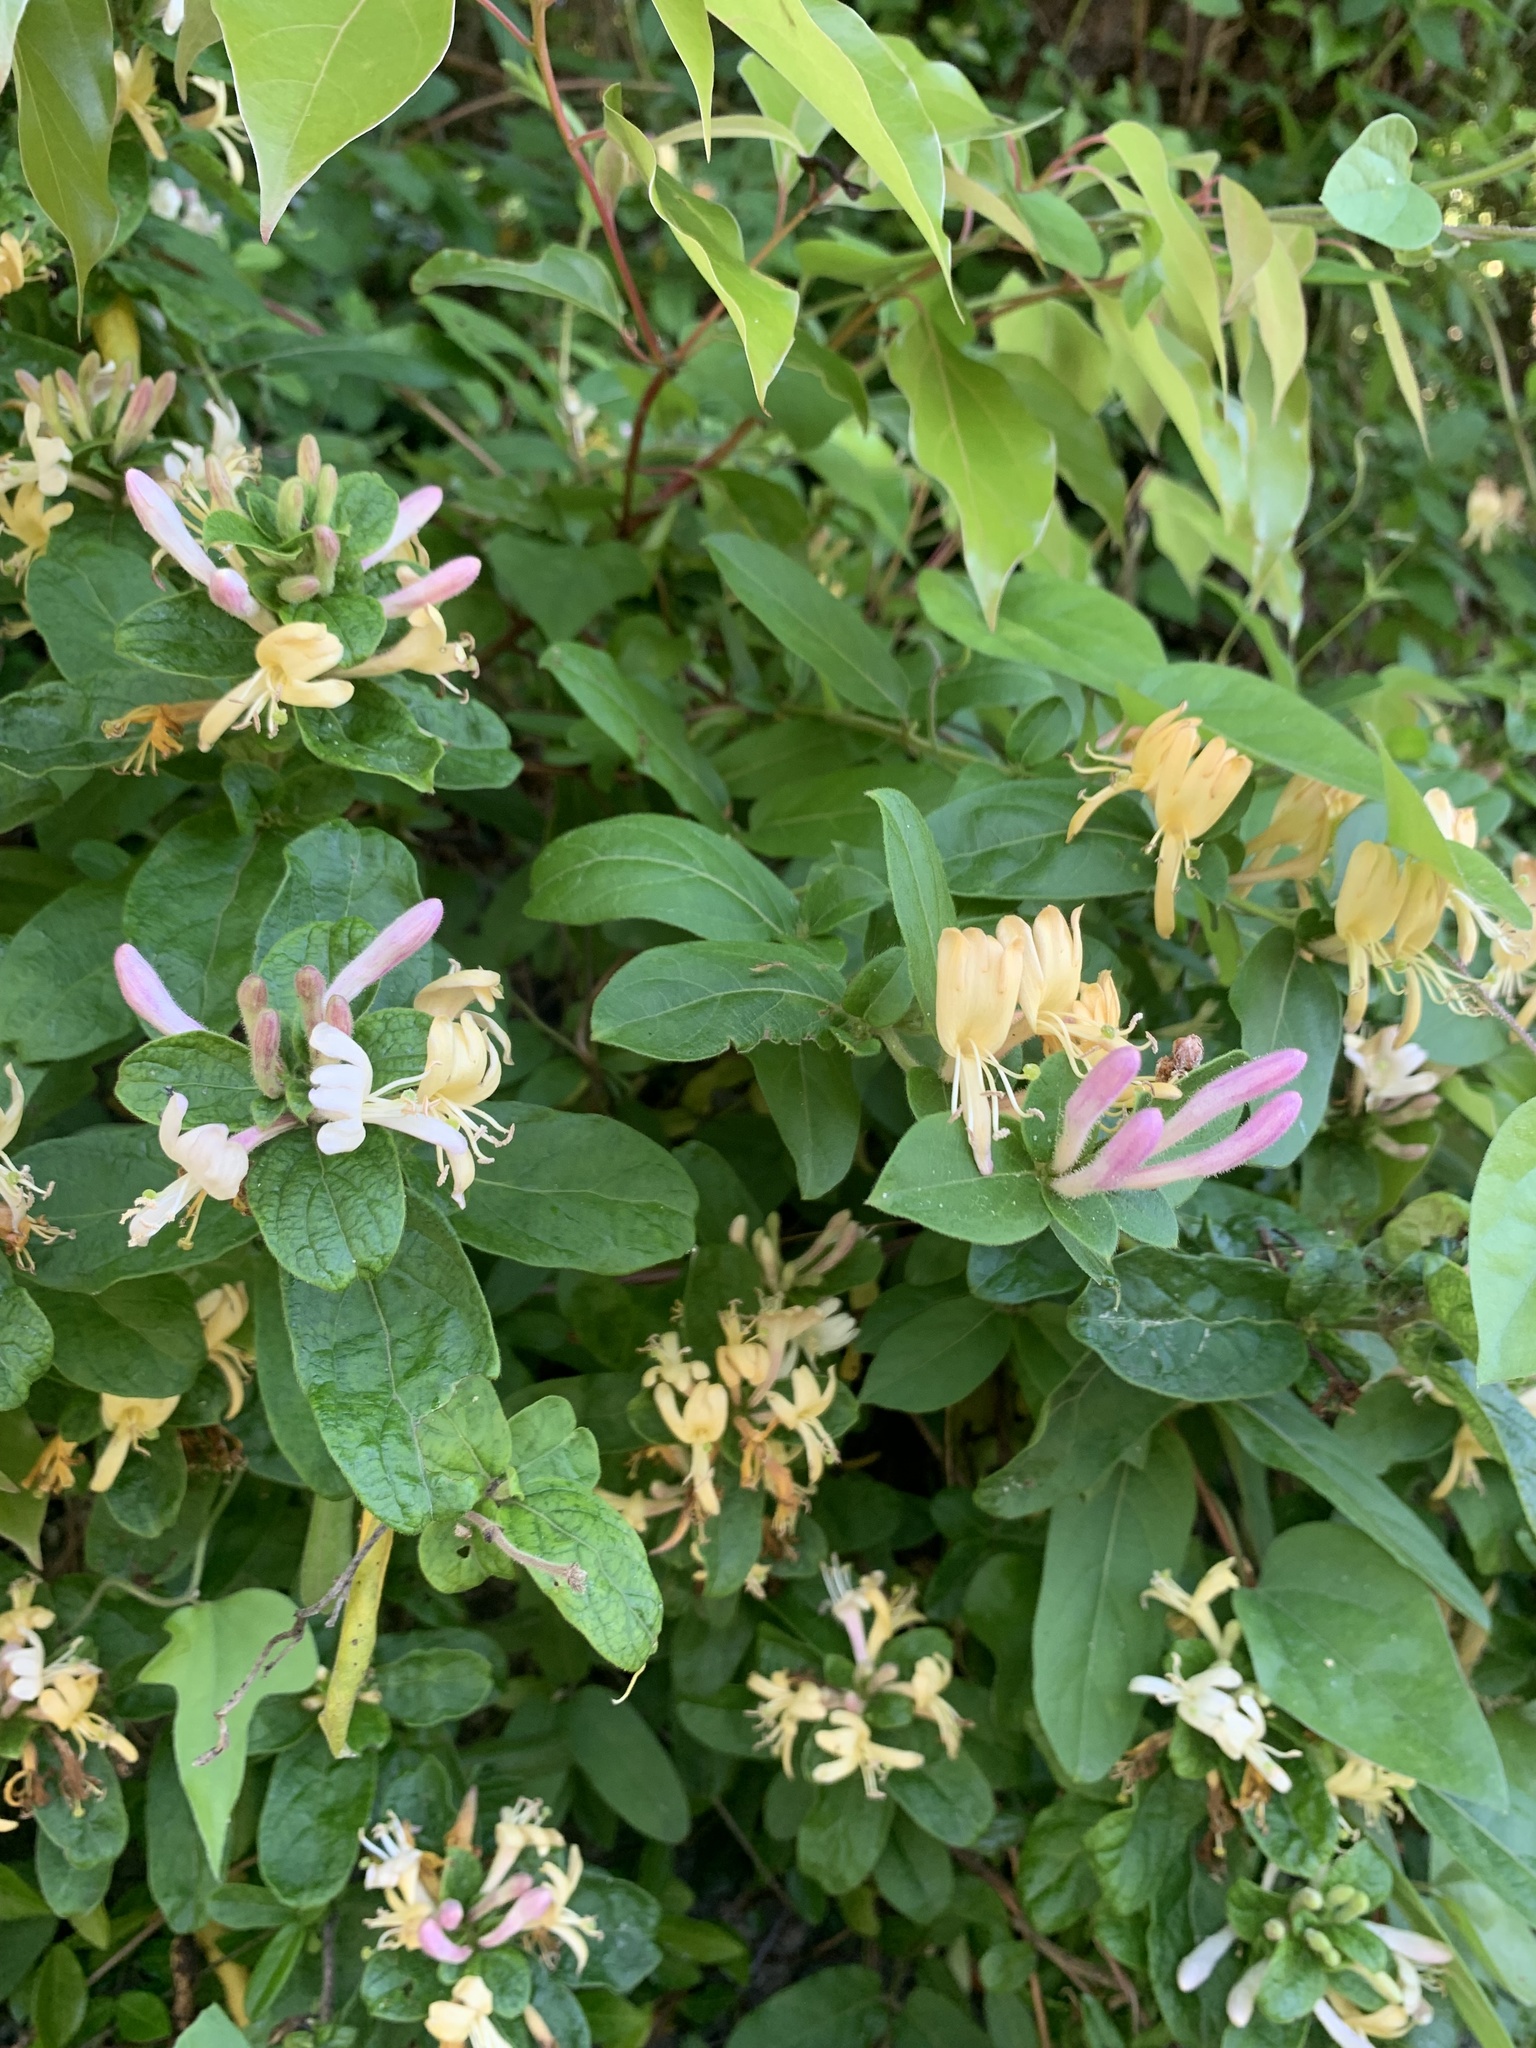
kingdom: Plantae
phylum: Tracheophyta
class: Magnoliopsida
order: Dipsacales
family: Caprifoliaceae
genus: Lonicera
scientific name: Lonicera japonica
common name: Japanese honeysuckle
